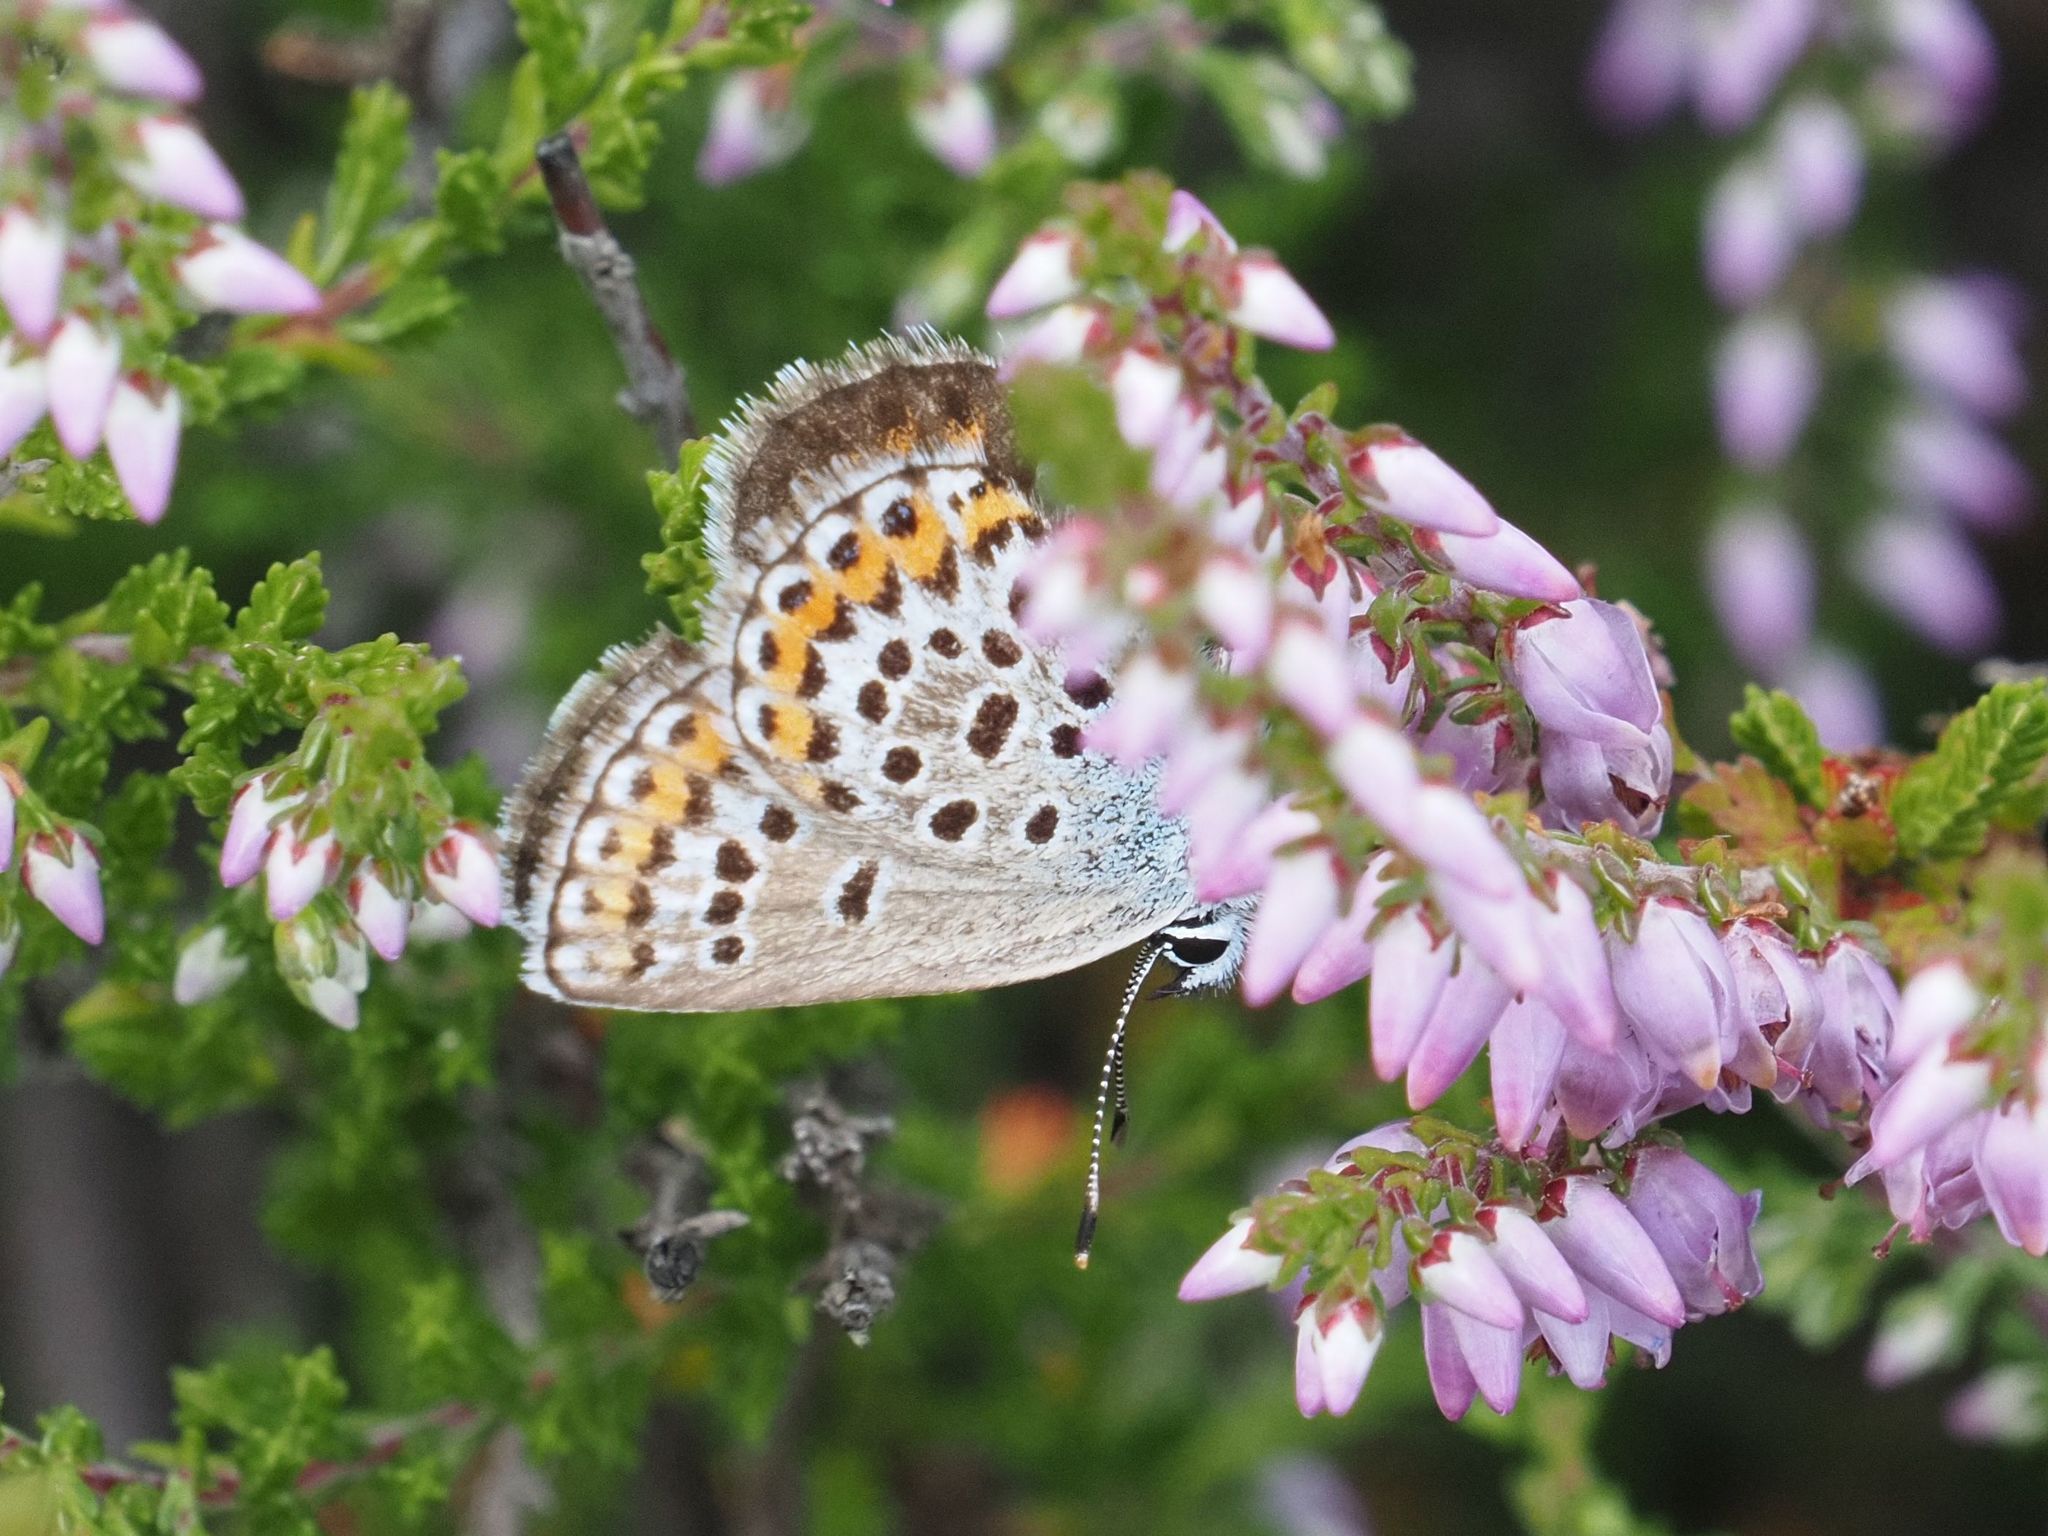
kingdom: Animalia
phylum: Arthropoda
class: Insecta
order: Lepidoptera
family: Lycaenidae
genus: Plebejus
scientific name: Plebejus argus
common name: Silver-studded blue
